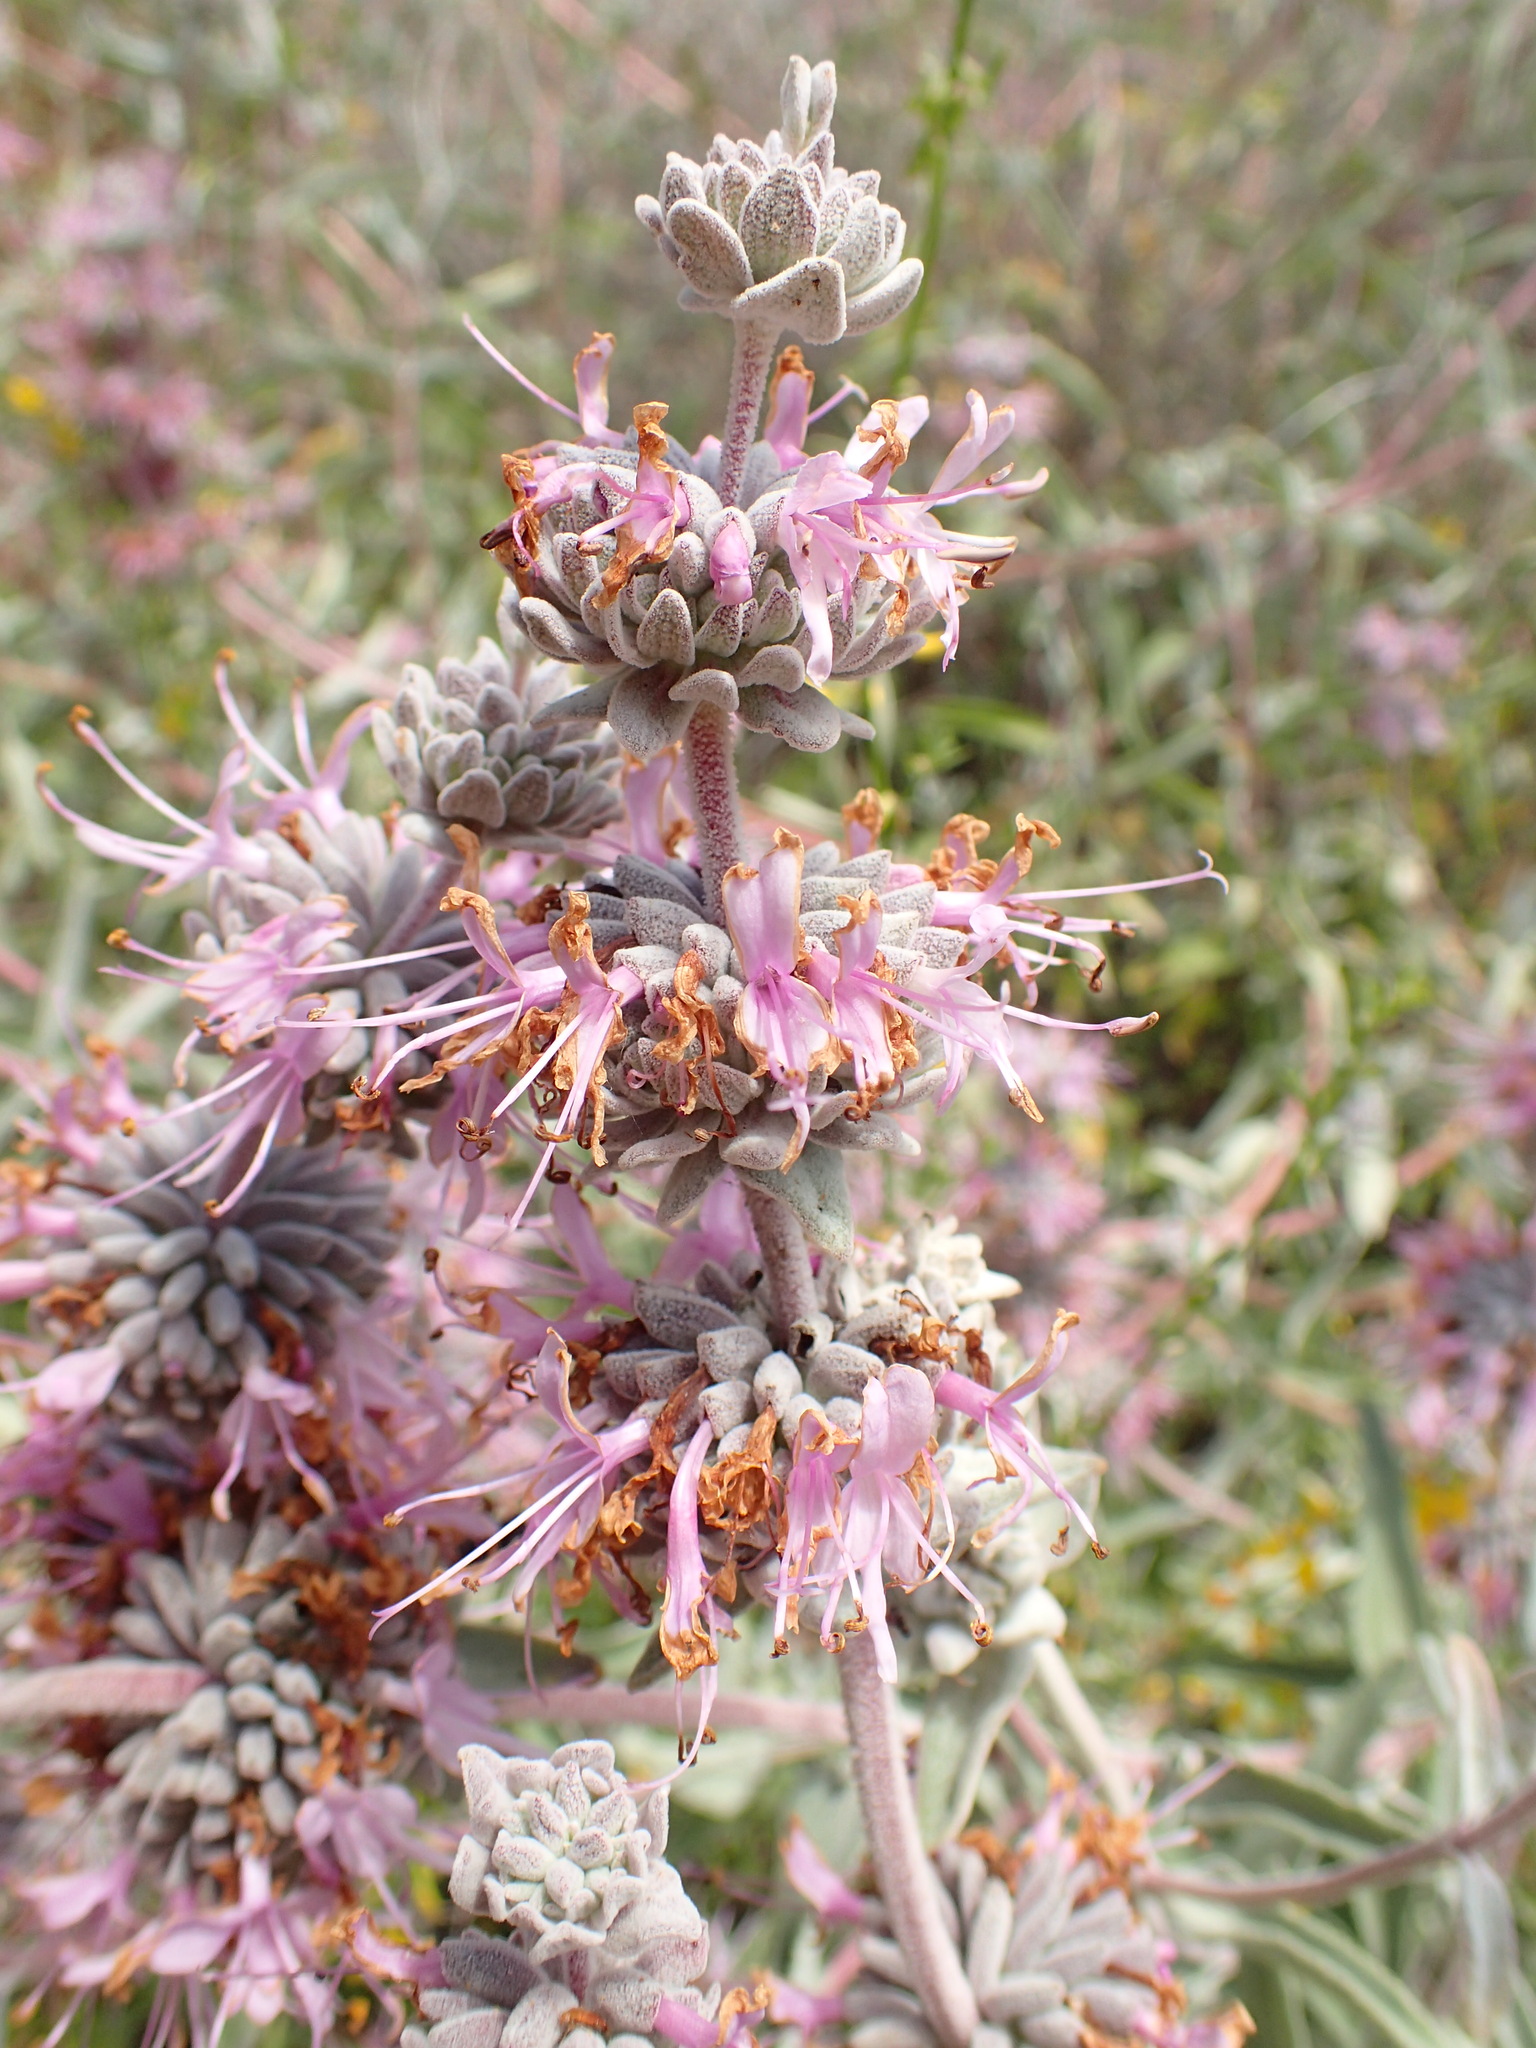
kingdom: Plantae
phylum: Tracheophyta
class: Magnoliopsida
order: Lamiales
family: Lamiaceae
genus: Salvia
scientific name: Salvia leucophylla
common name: Purple sage
